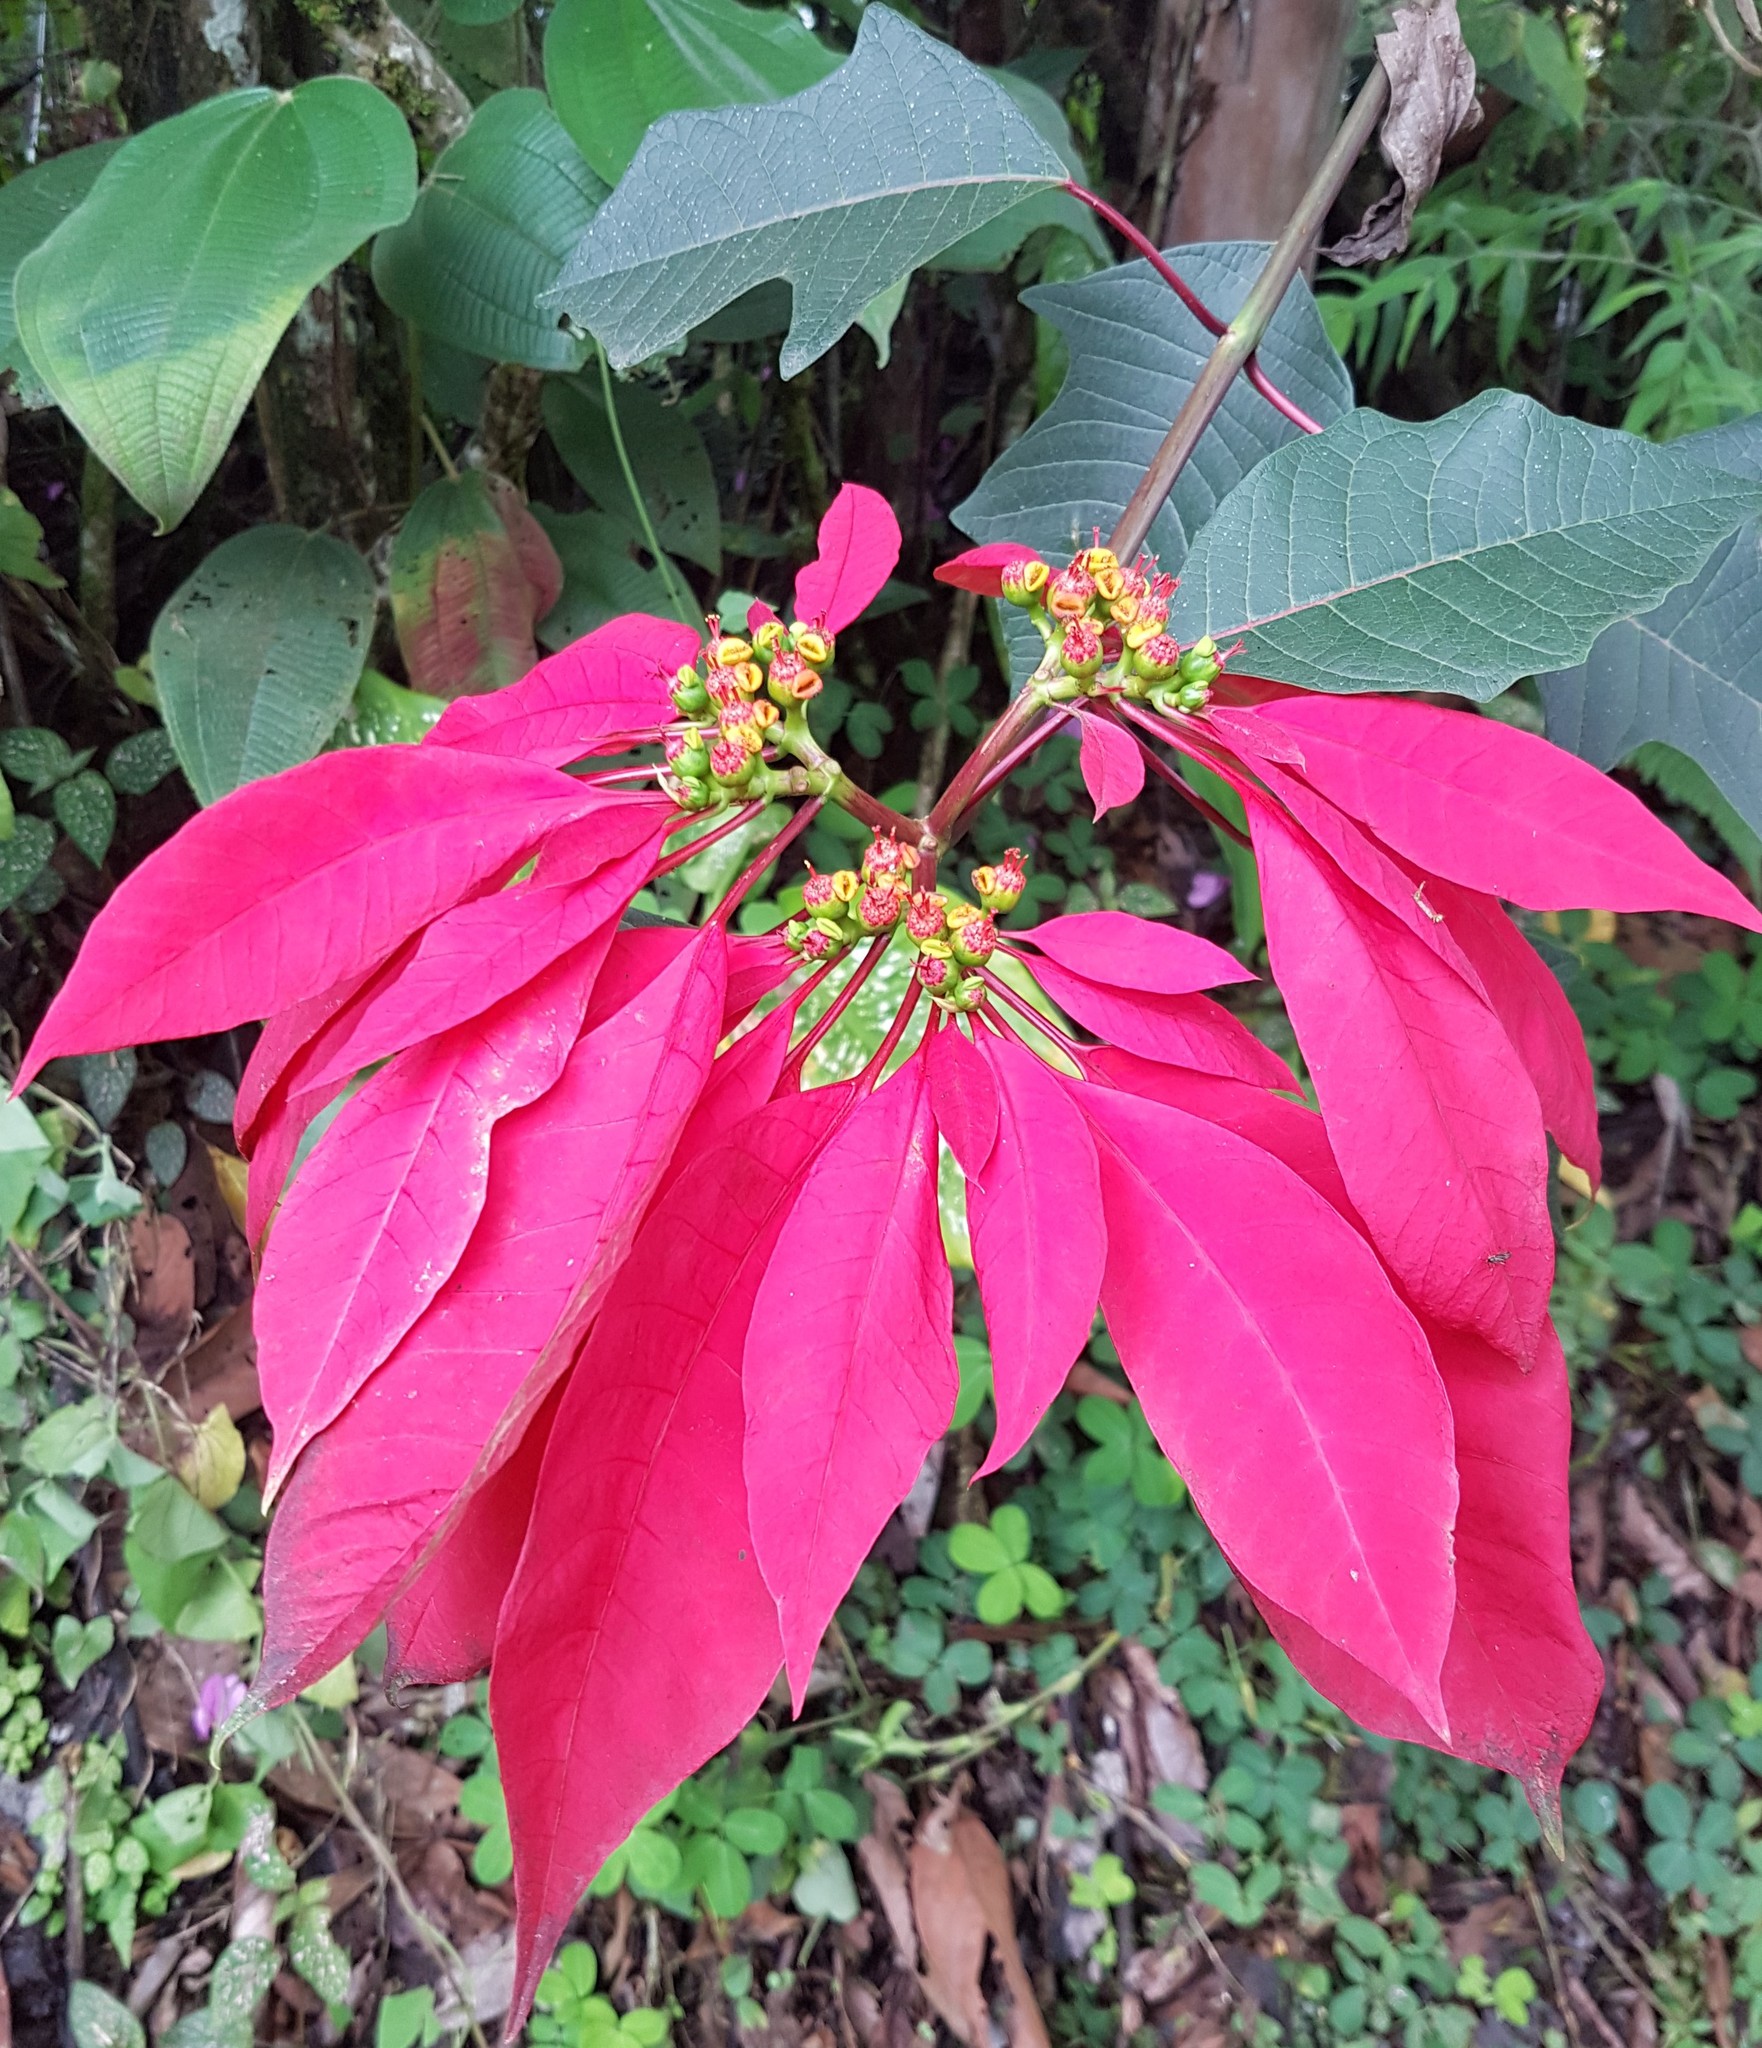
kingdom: Plantae
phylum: Tracheophyta
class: Magnoliopsida
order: Malpighiales
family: Euphorbiaceae
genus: Euphorbia
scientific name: Euphorbia pulcherrima
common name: Christmas-flower
